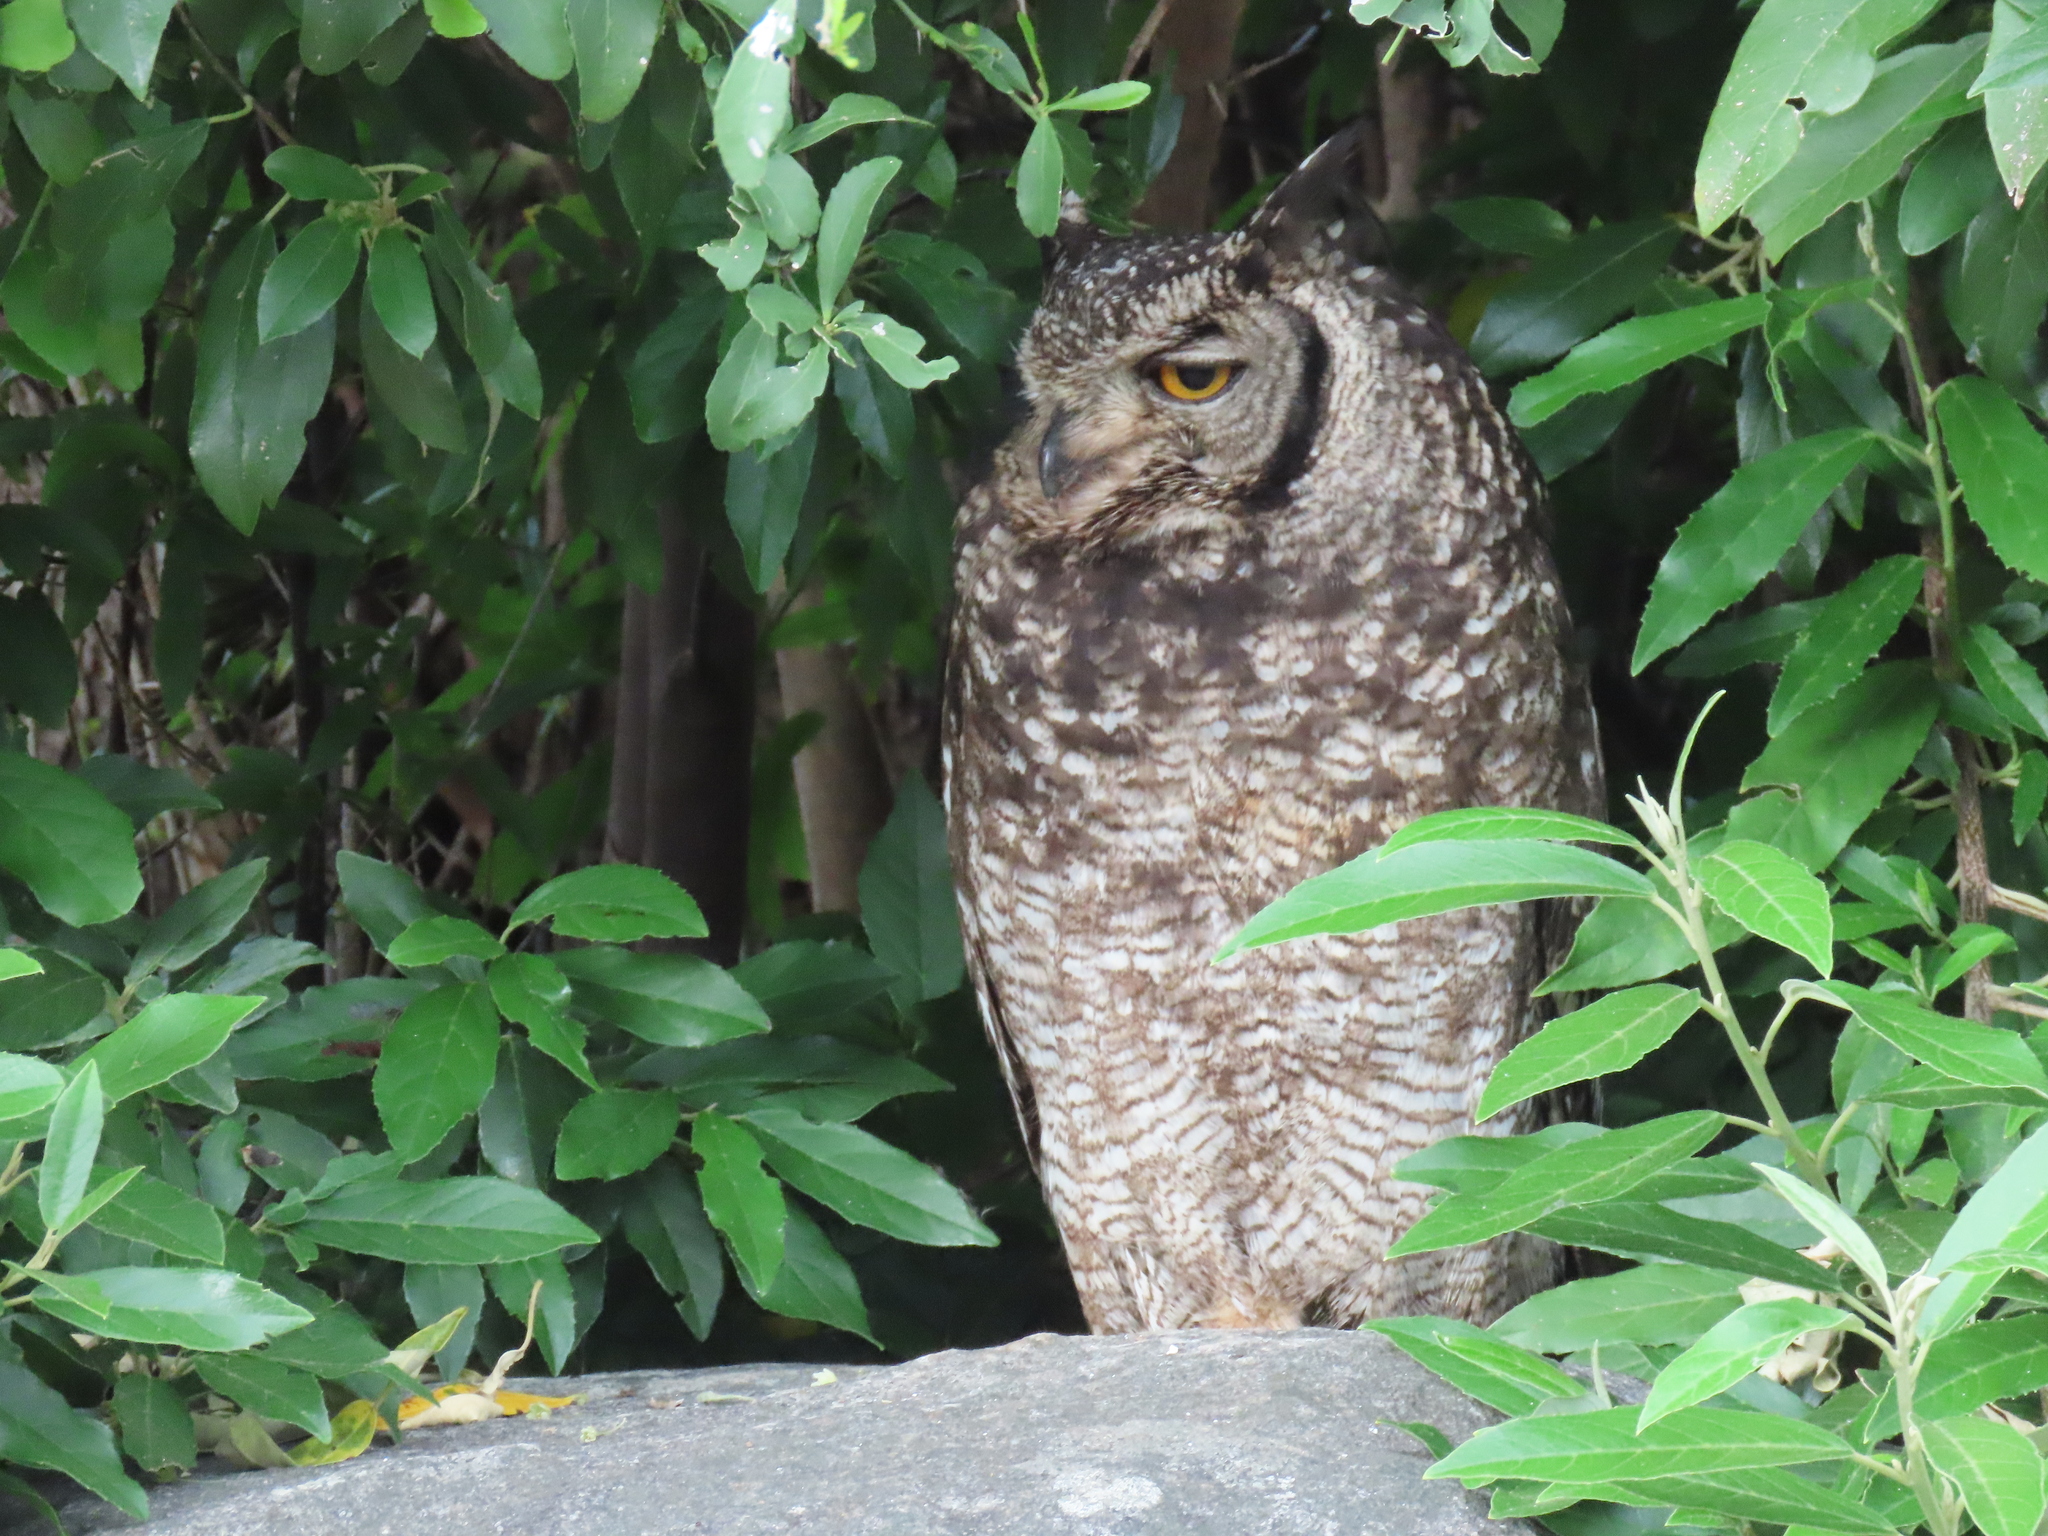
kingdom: Animalia
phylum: Chordata
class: Aves
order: Strigiformes
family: Strigidae
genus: Bubo
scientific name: Bubo africanus
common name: Spotted eagle-owl
